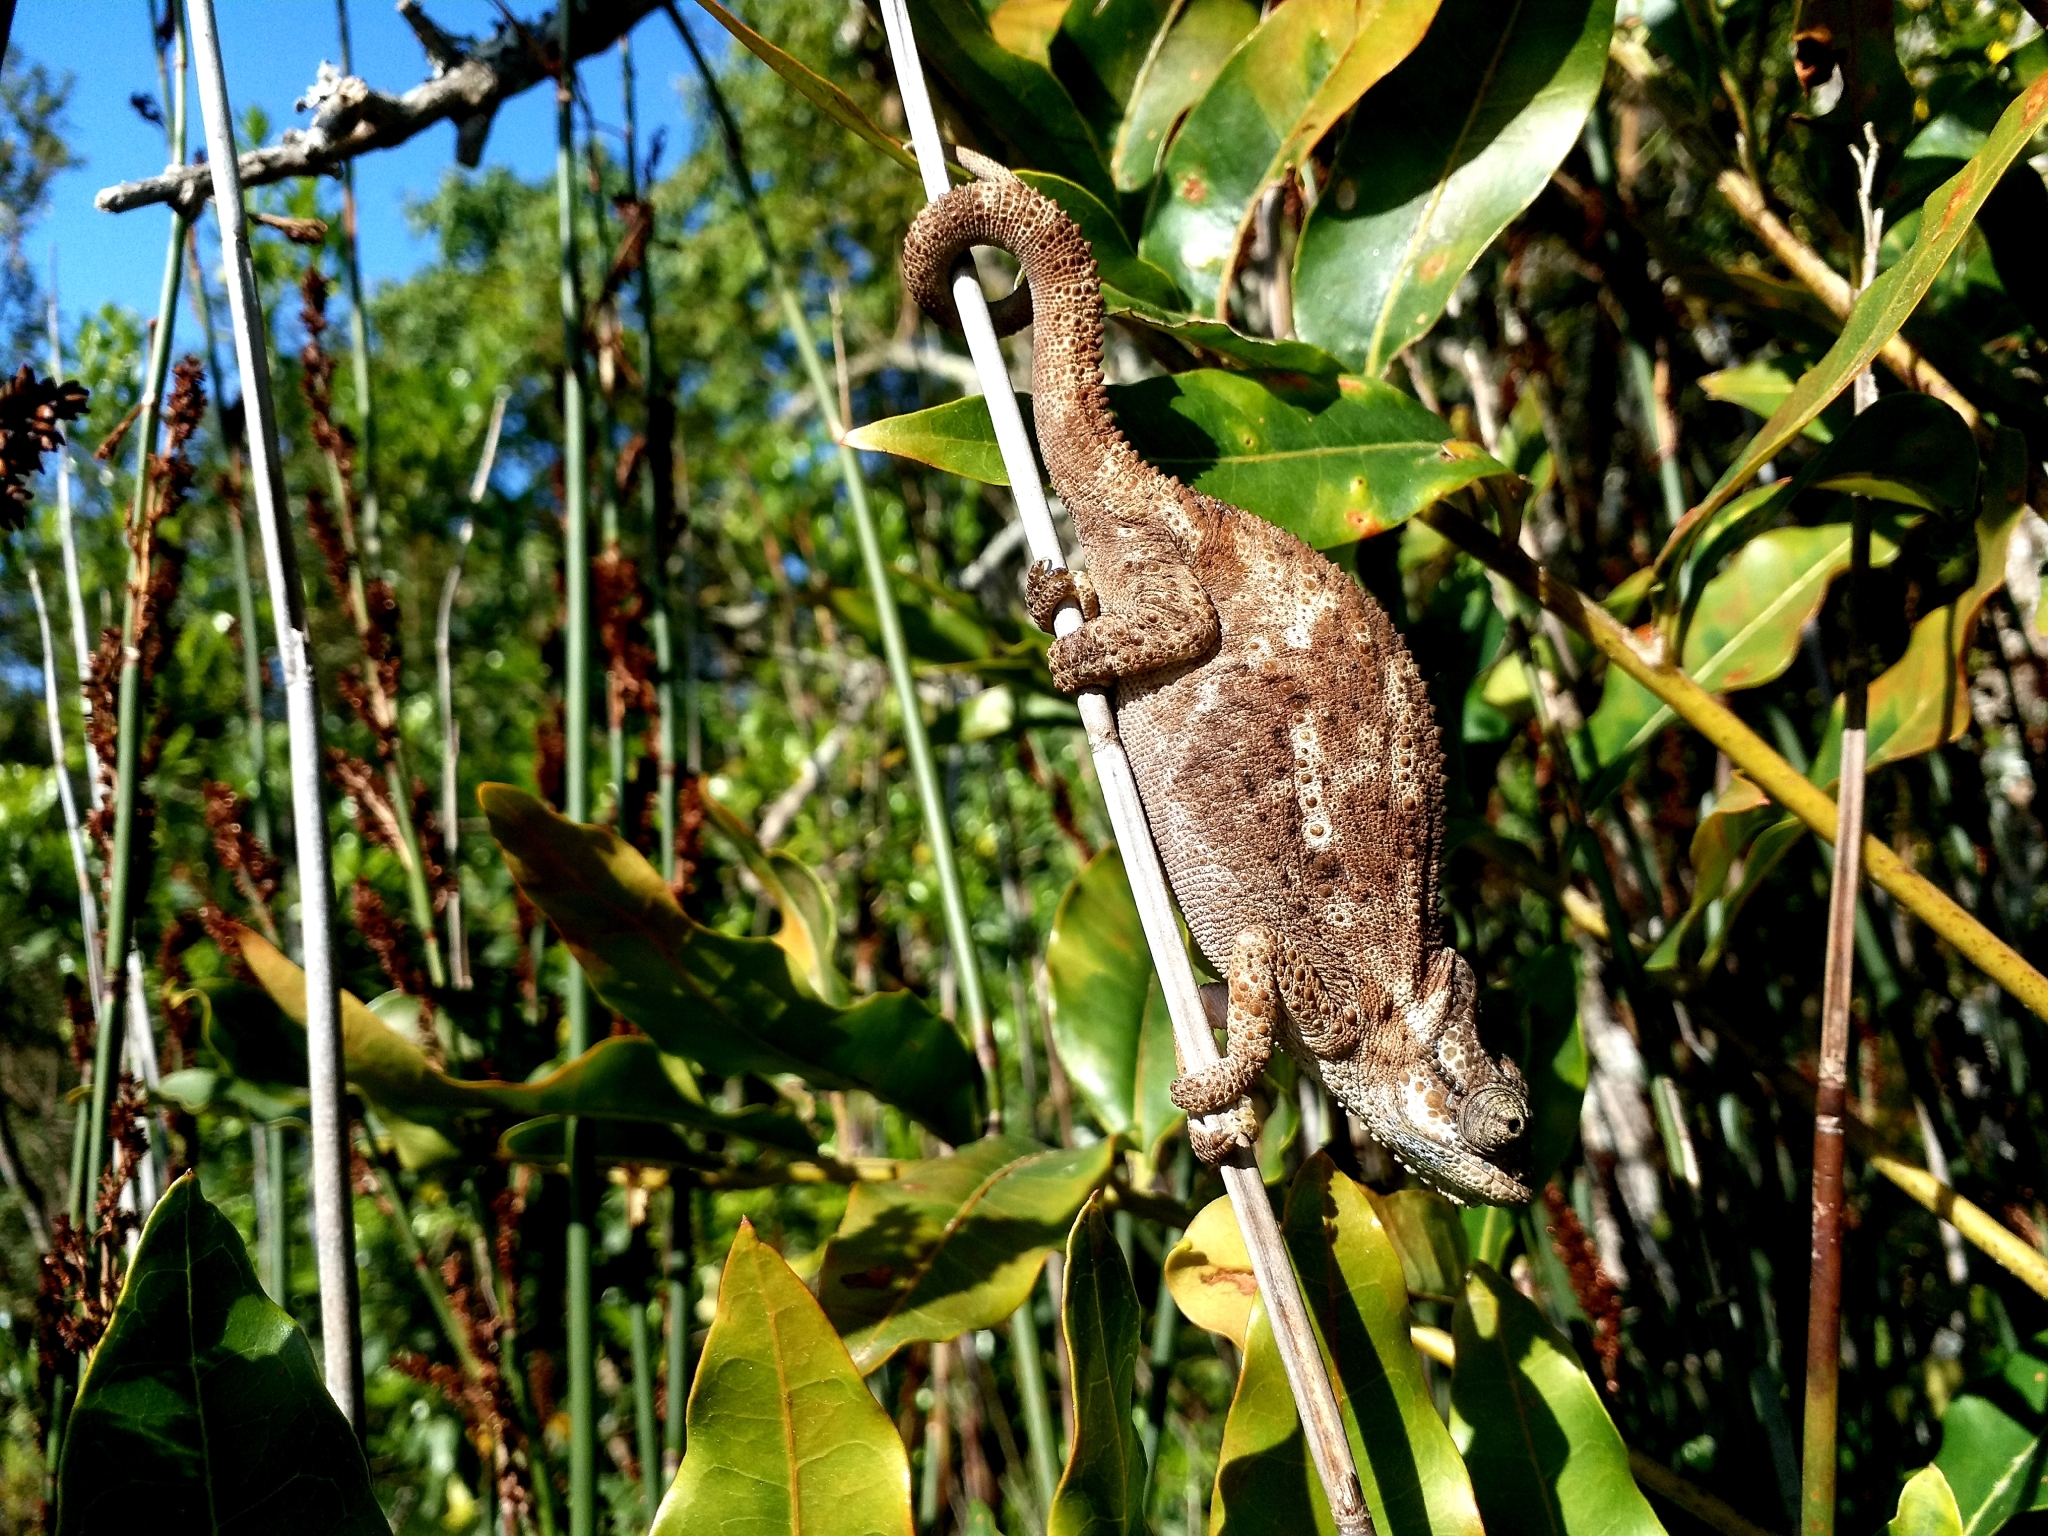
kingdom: Animalia
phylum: Chordata
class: Squamata
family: Chamaeleonidae
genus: Bradypodion
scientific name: Bradypodion damaranum
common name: Knysna dwarf chameleon
